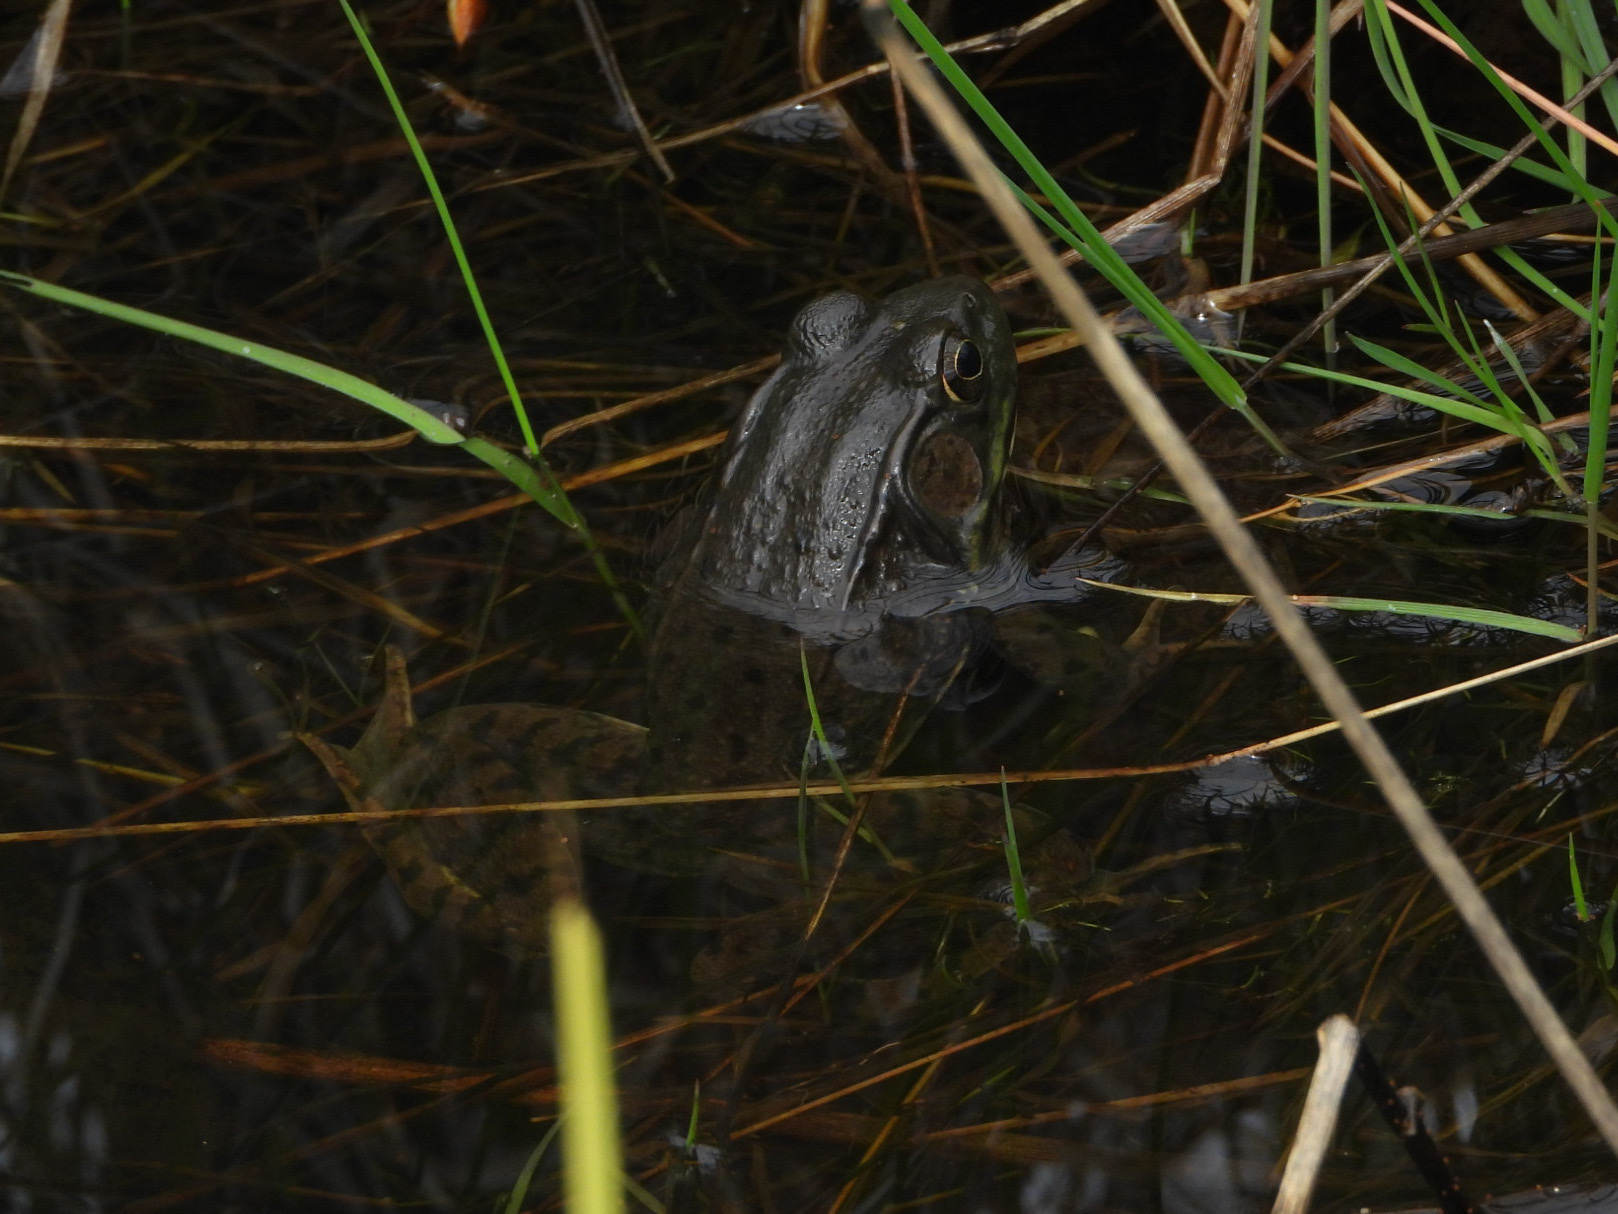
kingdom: Animalia
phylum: Chordata
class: Amphibia
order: Anura
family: Ranidae
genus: Lithobates
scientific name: Lithobates clamitans
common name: Green frog
